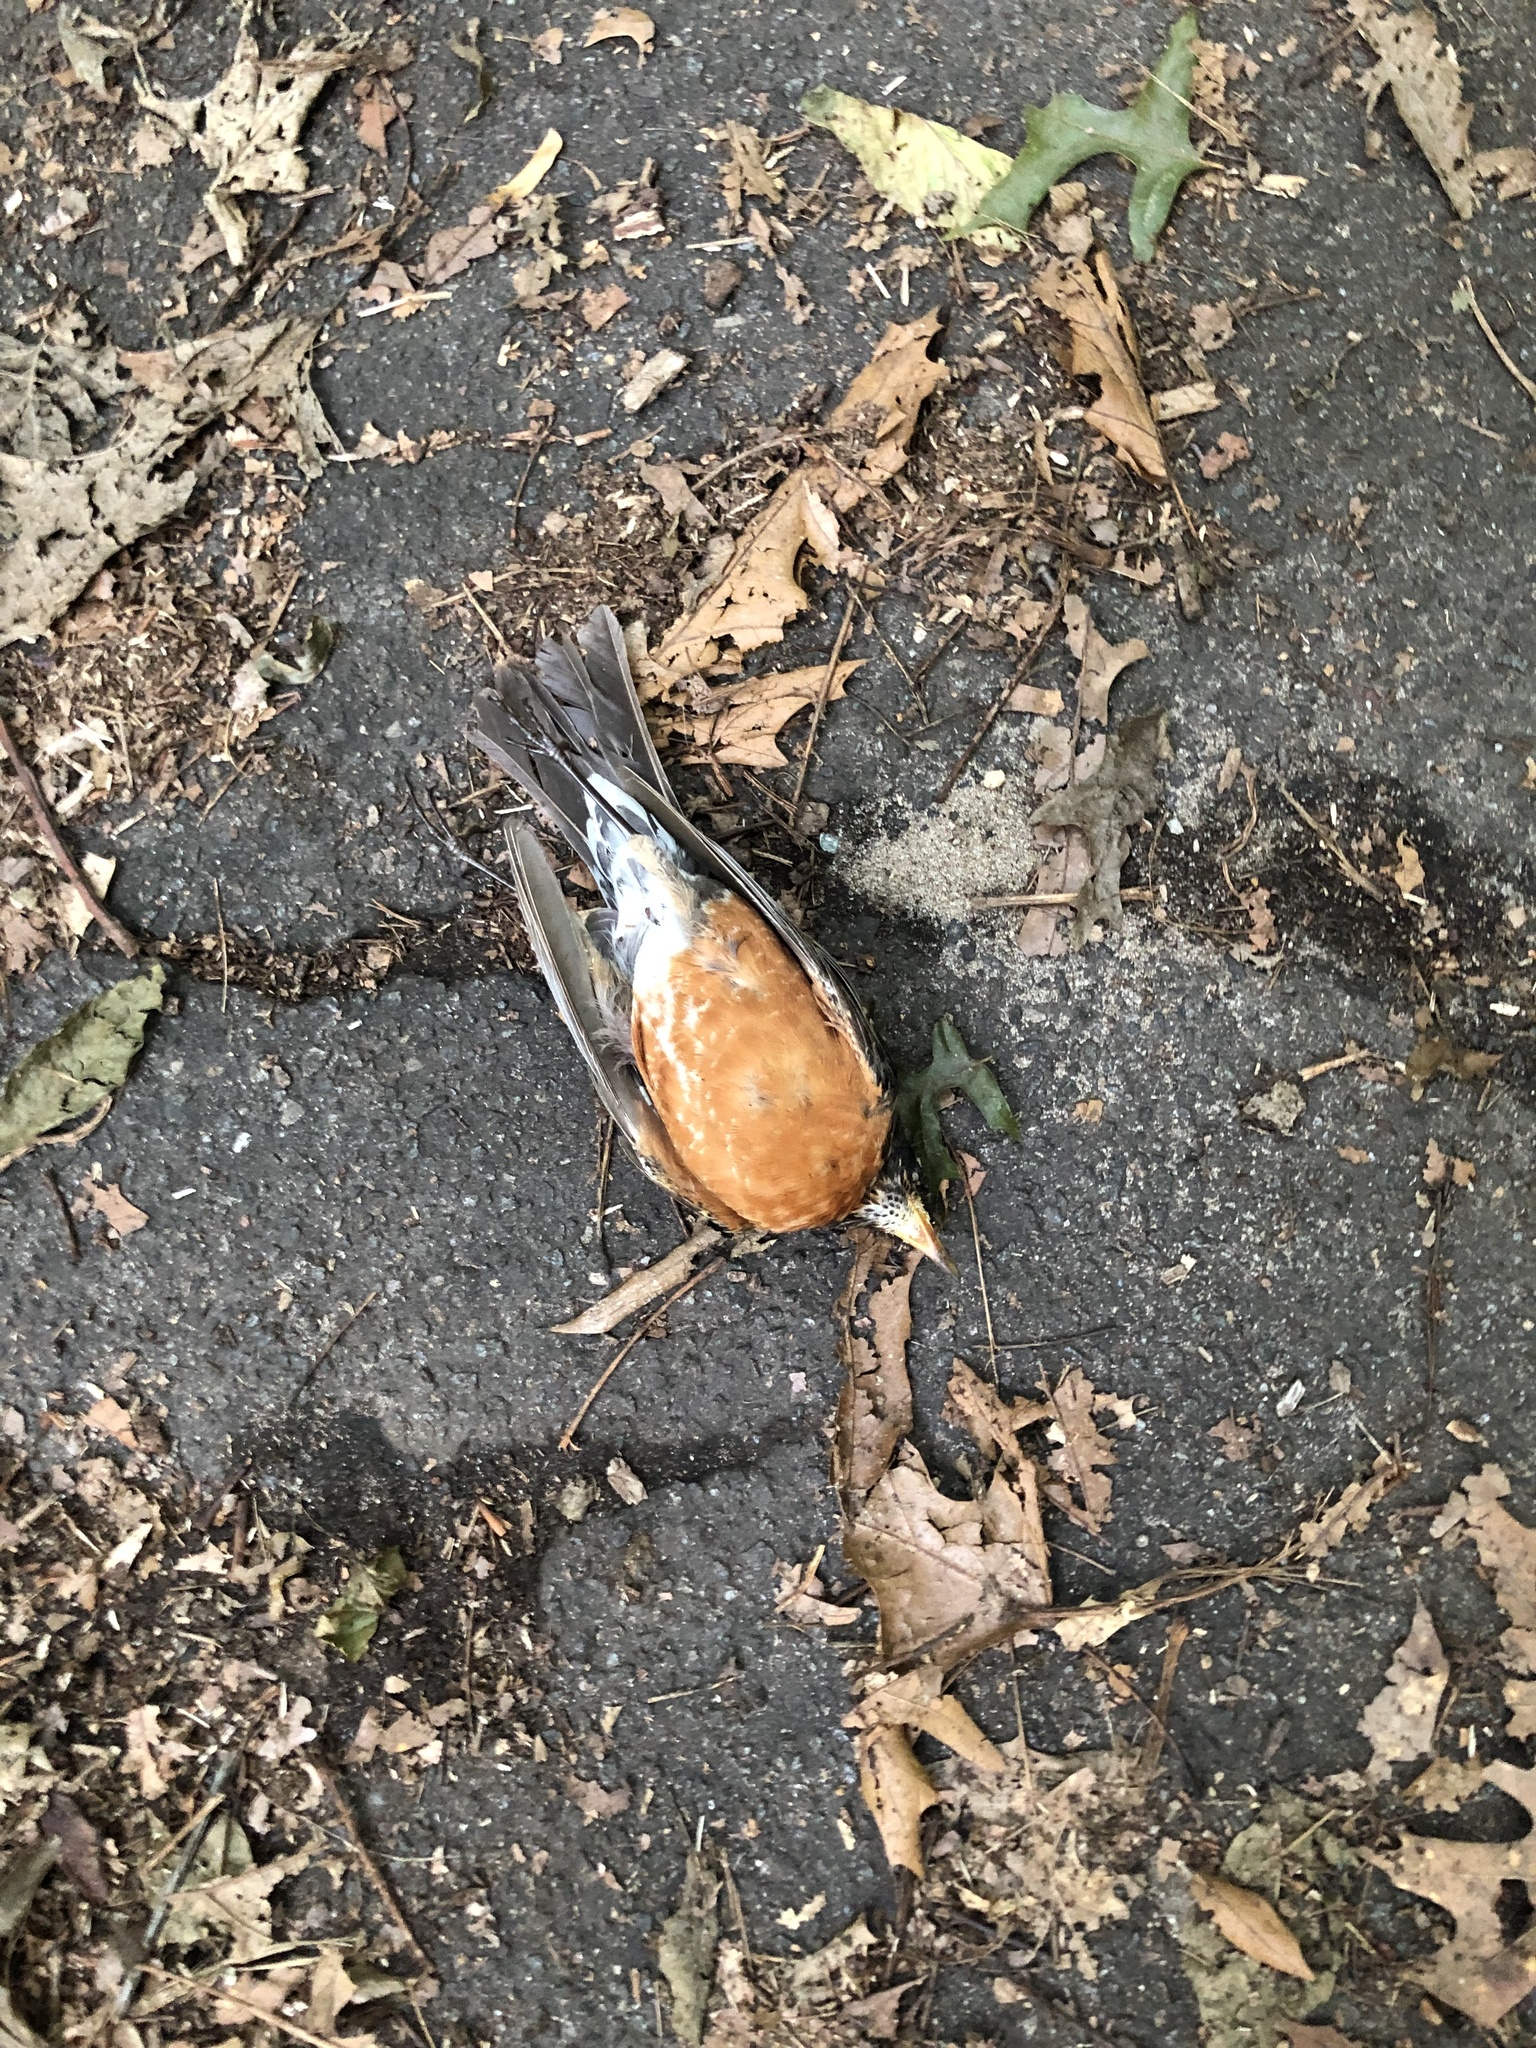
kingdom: Animalia
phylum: Chordata
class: Aves
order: Passeriformes
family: Turdidae
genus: Turdus
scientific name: Turdus migratorius
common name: American robin
